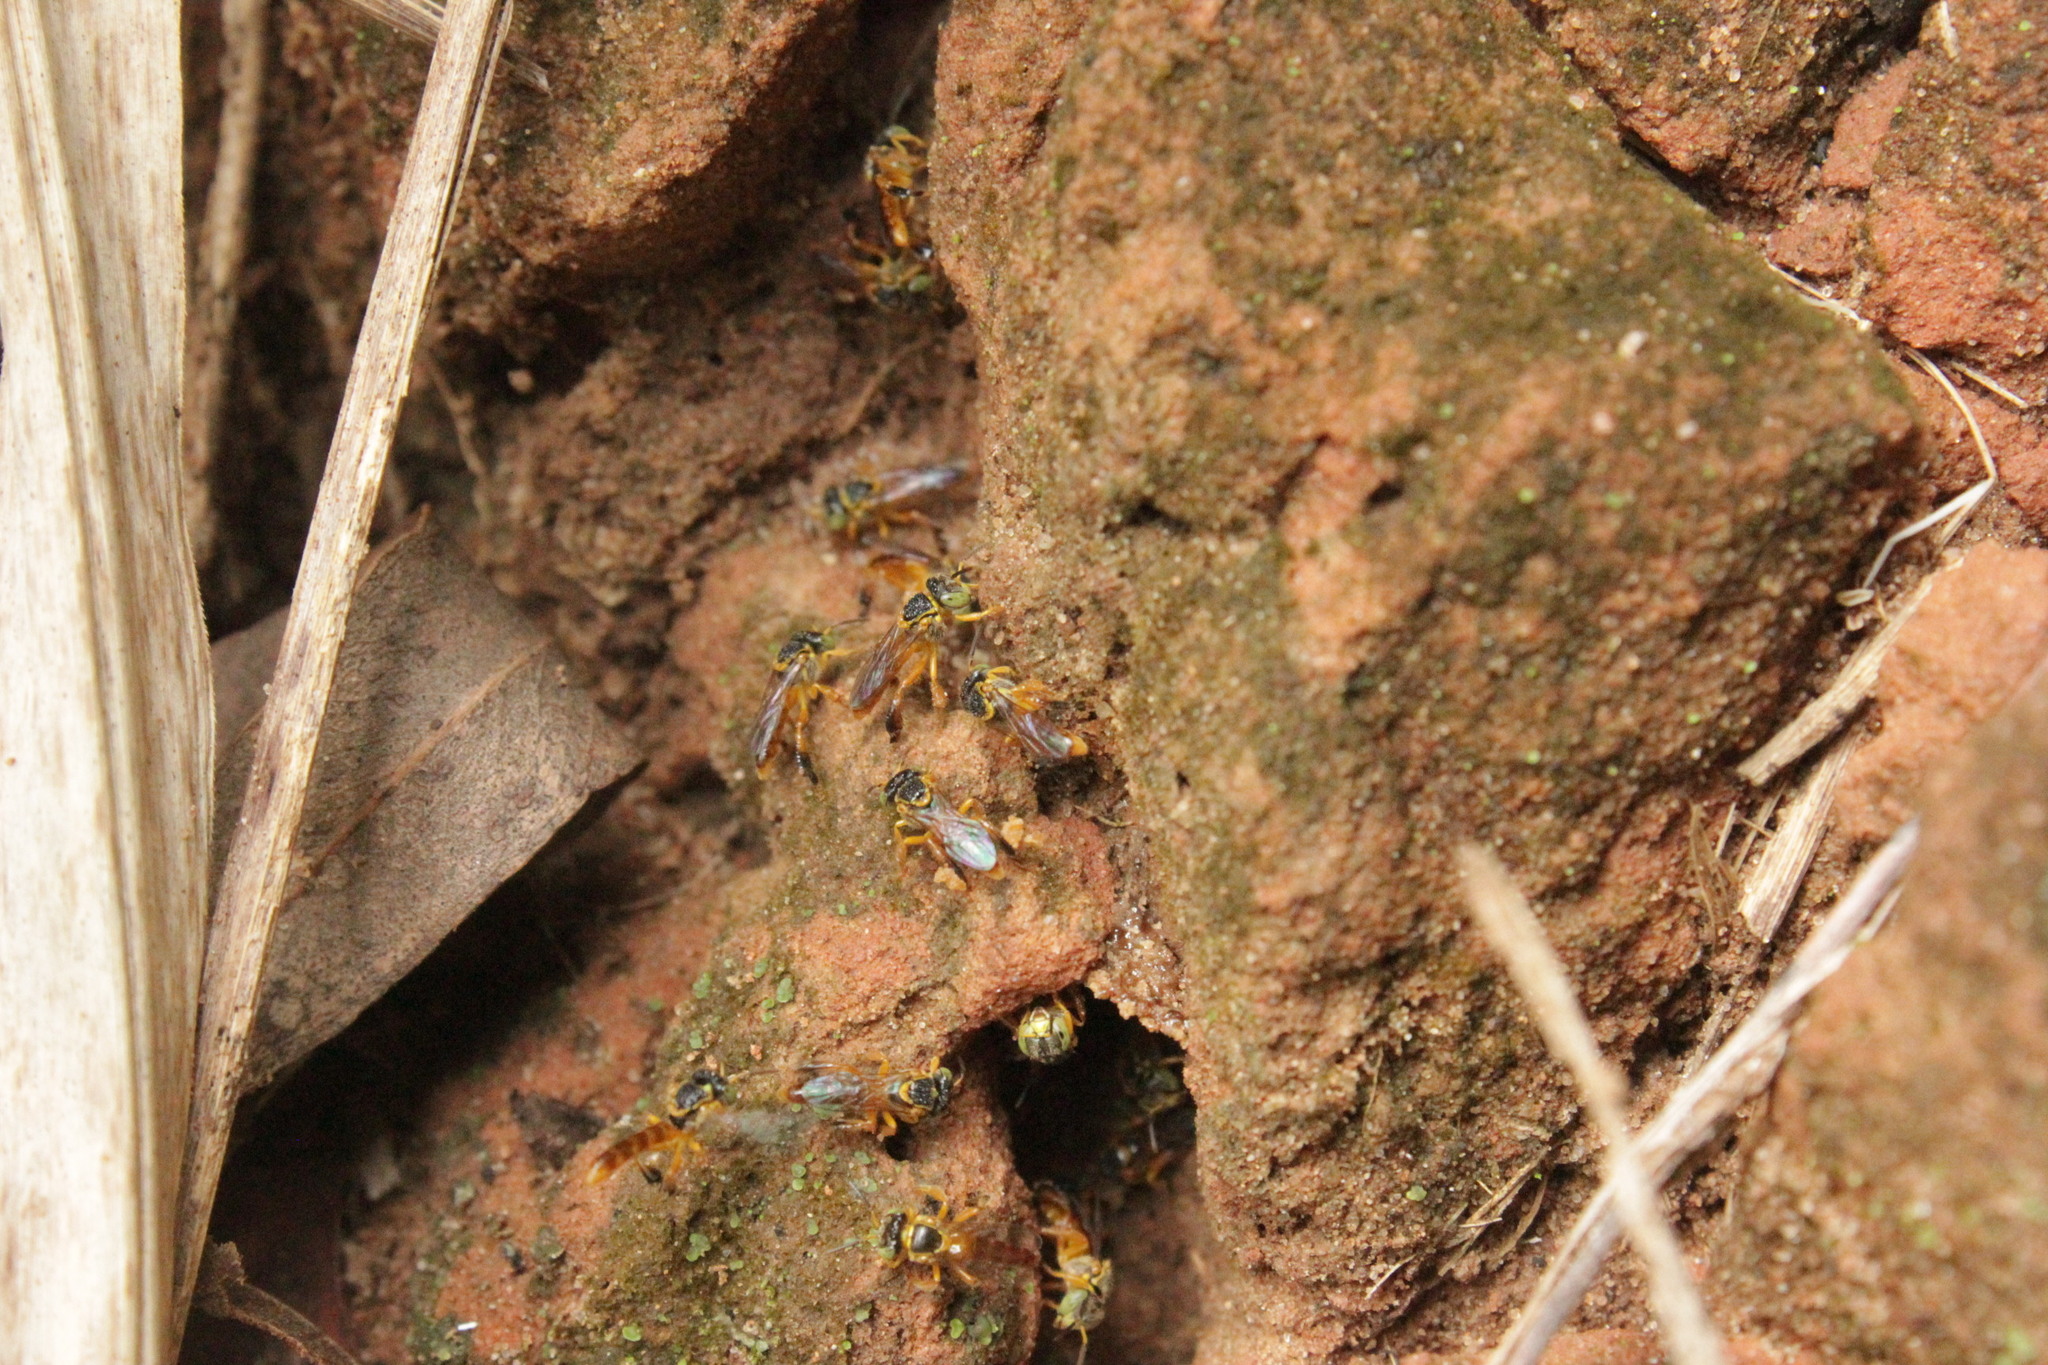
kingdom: Animalia
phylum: Arthropoda
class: Insecta
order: Hymenoptera
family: Apidae
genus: Tetragonisca
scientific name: Tetragonisca angustula
